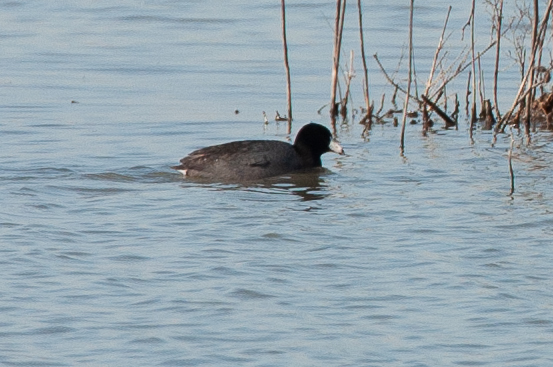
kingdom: Animalia
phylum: Chordata
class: Aves
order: Gruiformes
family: Rallidae
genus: Fulica
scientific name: Fulica americana
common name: American coot
